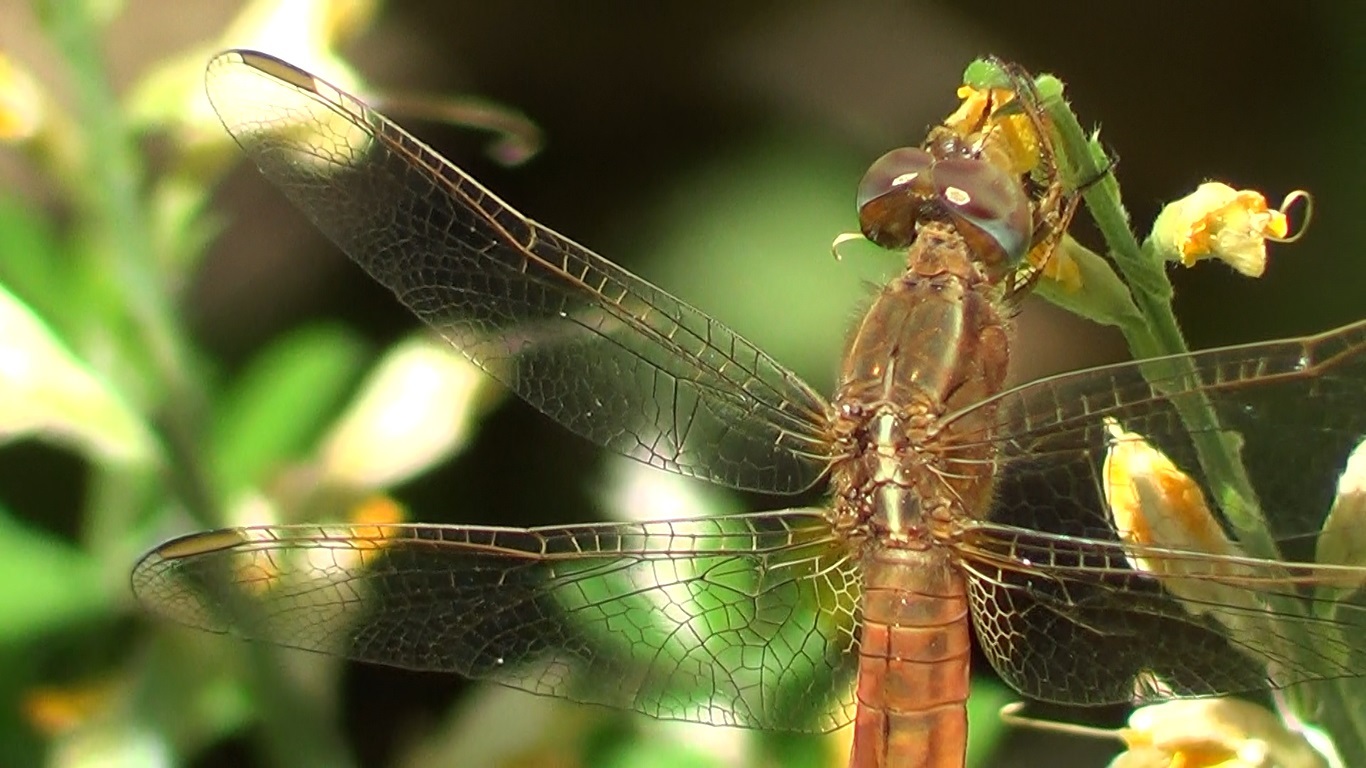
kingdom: Animalia
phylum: Arthropoda
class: Insecta
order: Odonata
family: Libellulidae
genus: Crocothemis
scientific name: Crocothemis erythraea
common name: Scarlet dragonfly
